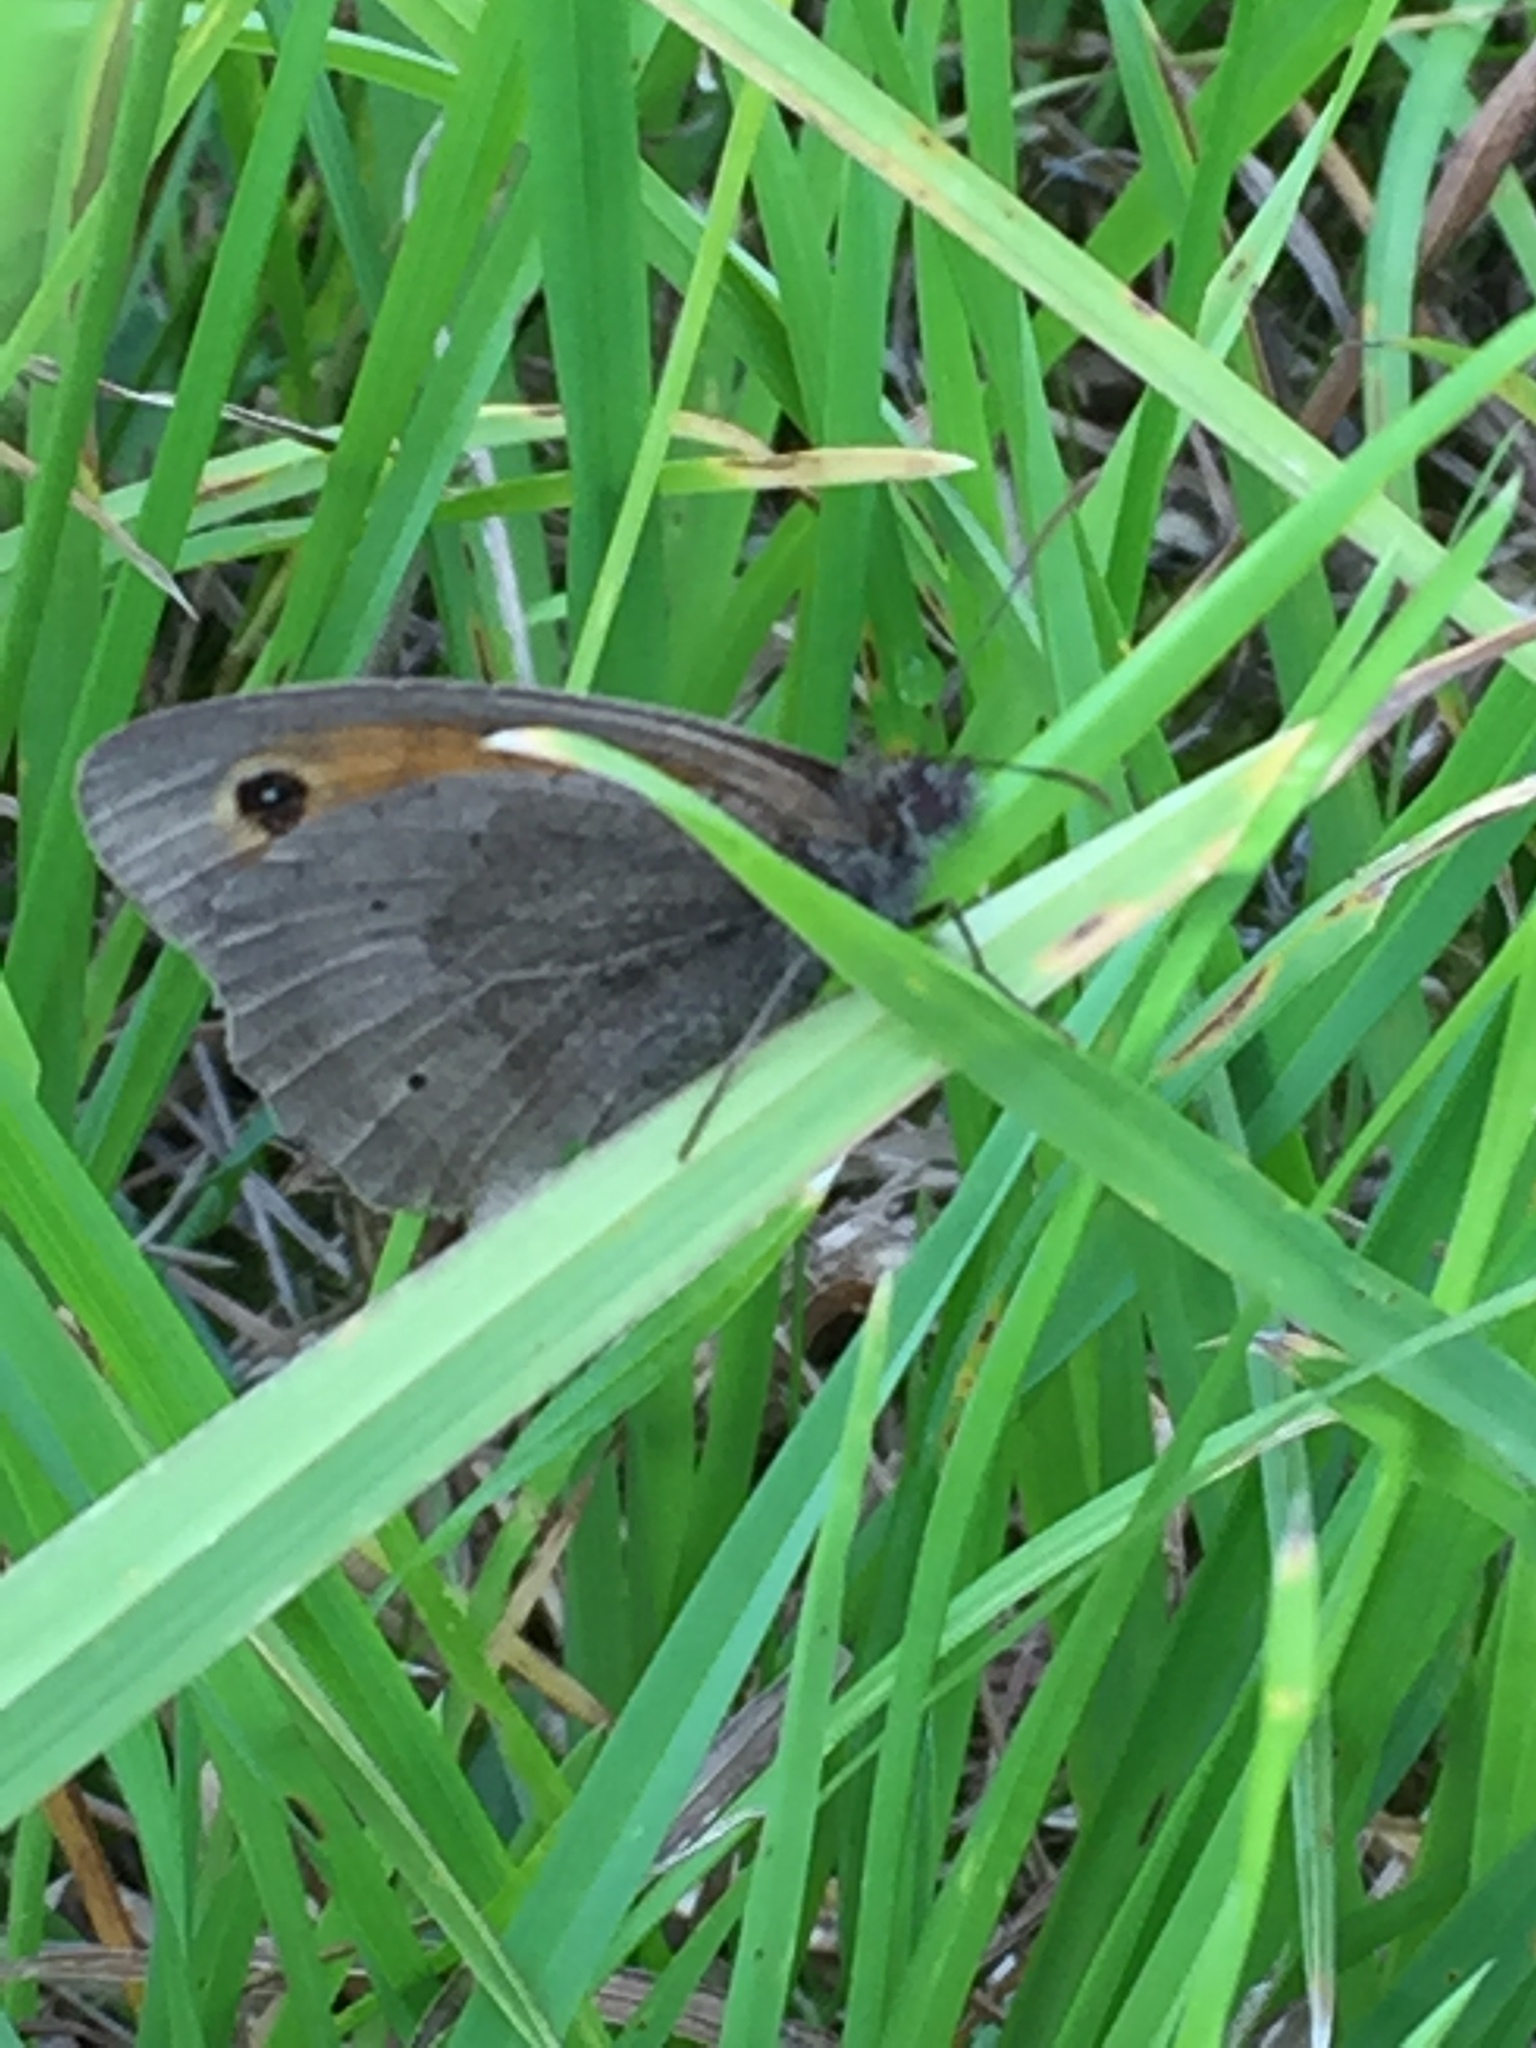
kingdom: Animalia
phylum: Arthropoda
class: Insecta
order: Lepidoptera
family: Nymphalidae
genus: Maniola
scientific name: Maniola jurtina
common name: Meadow brown
